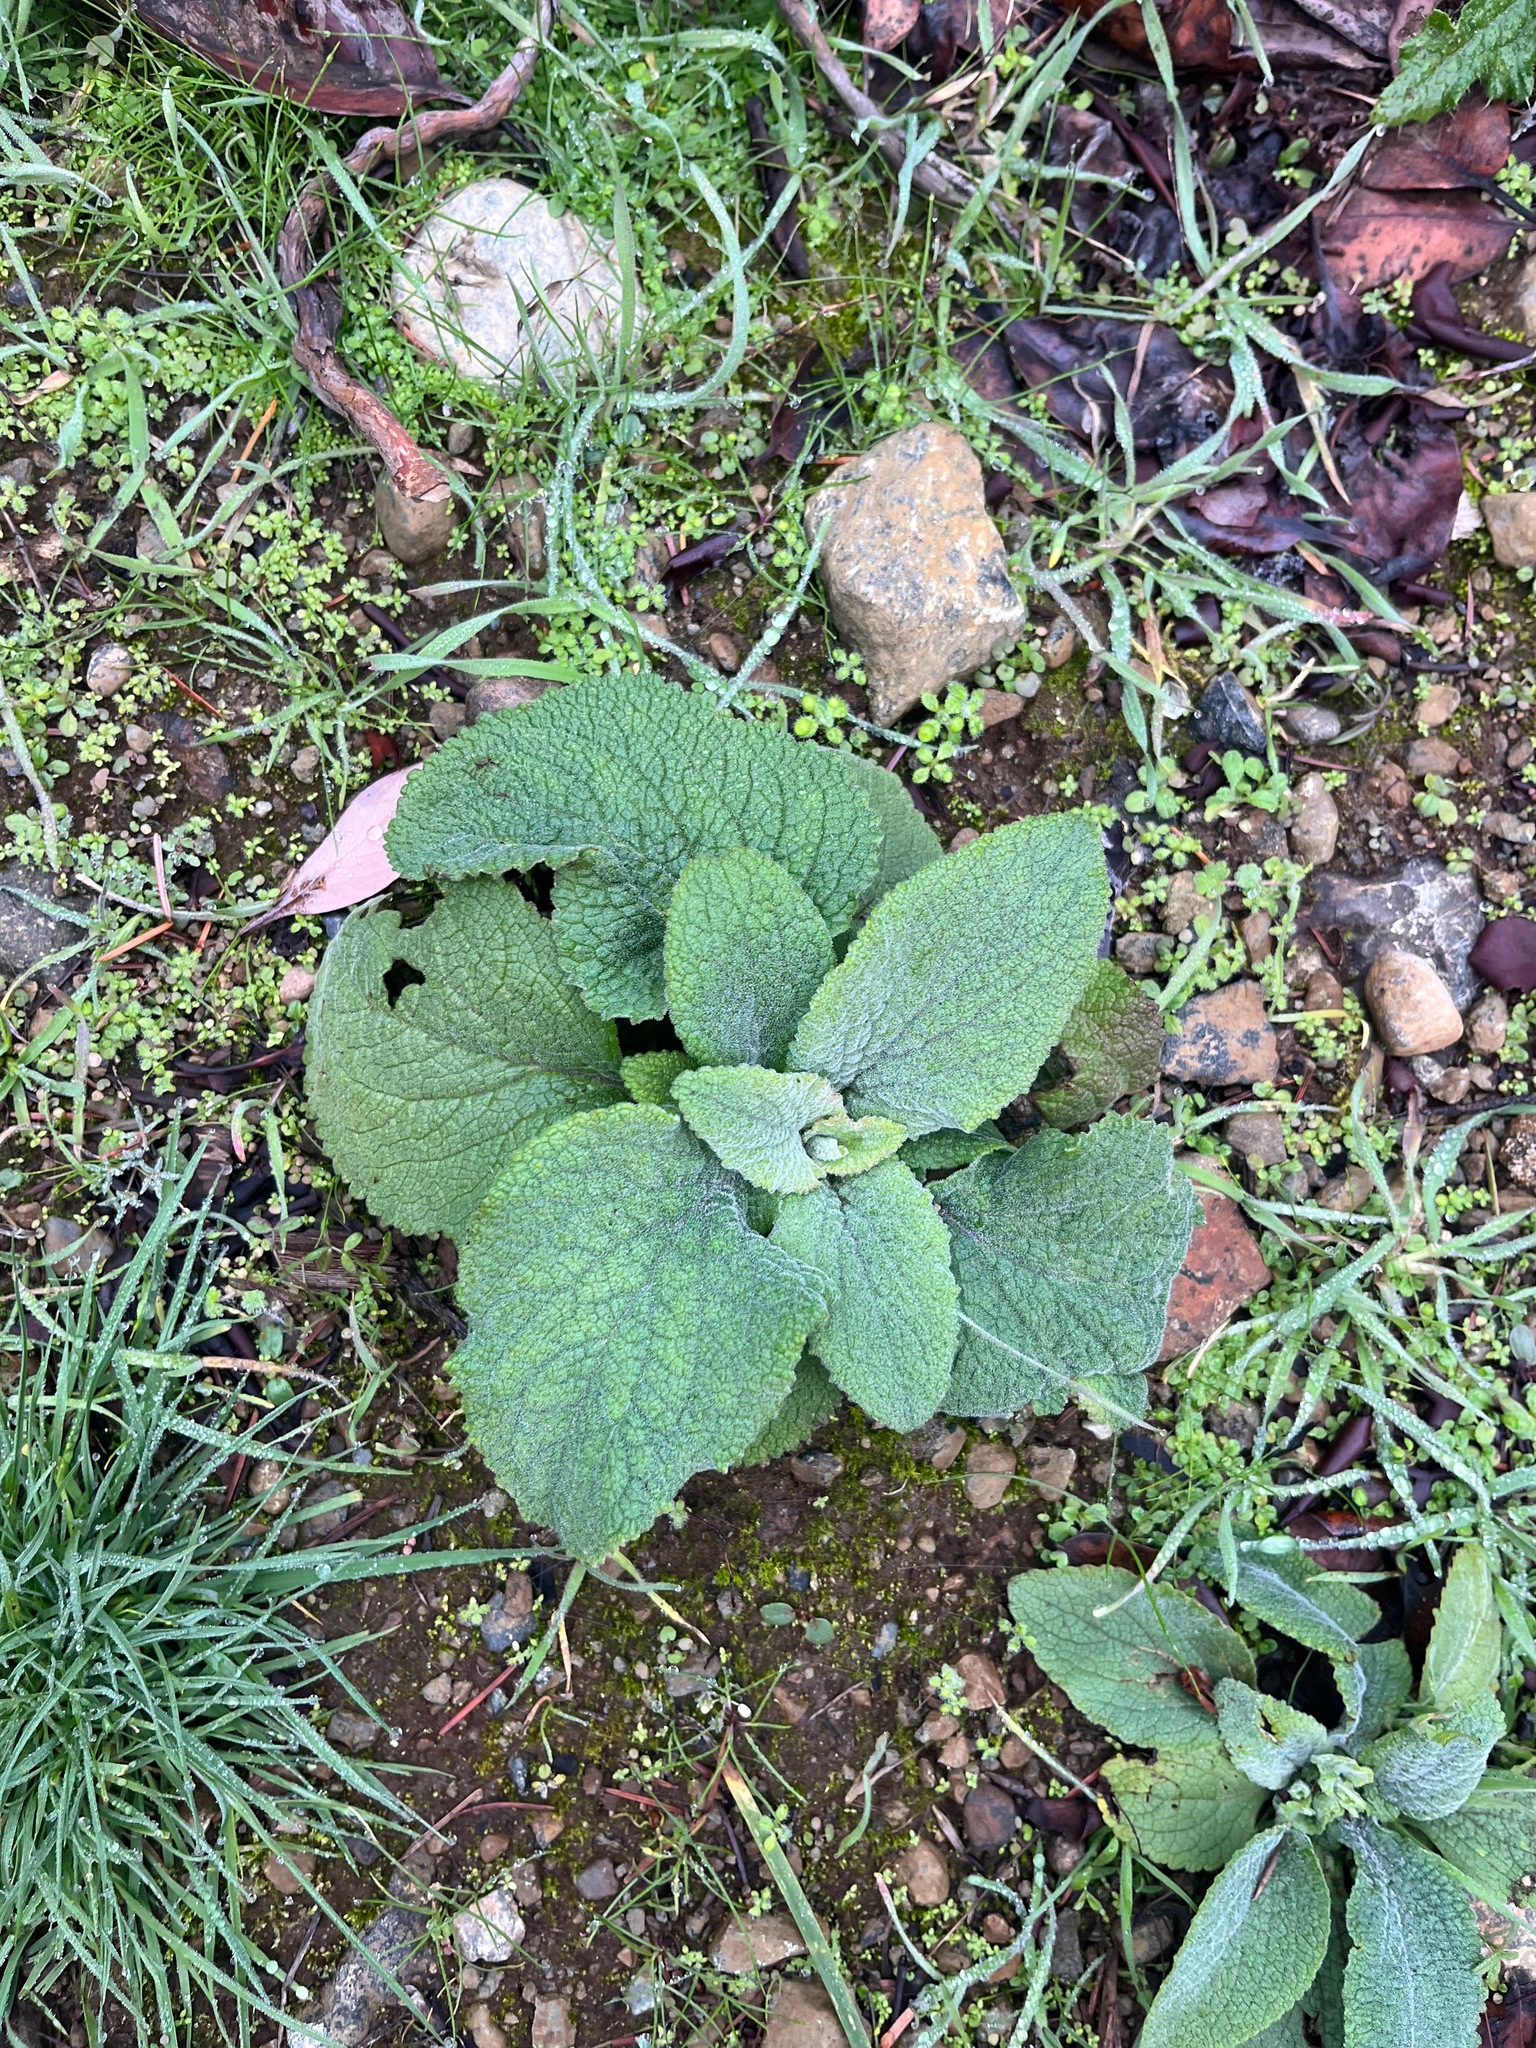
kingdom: Plantae
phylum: Tracheophyta
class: Magnoliopsida
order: Lamiales
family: Plantaginaceae
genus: Digitalis
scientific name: Digitalis purpurea
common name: Foxglove
